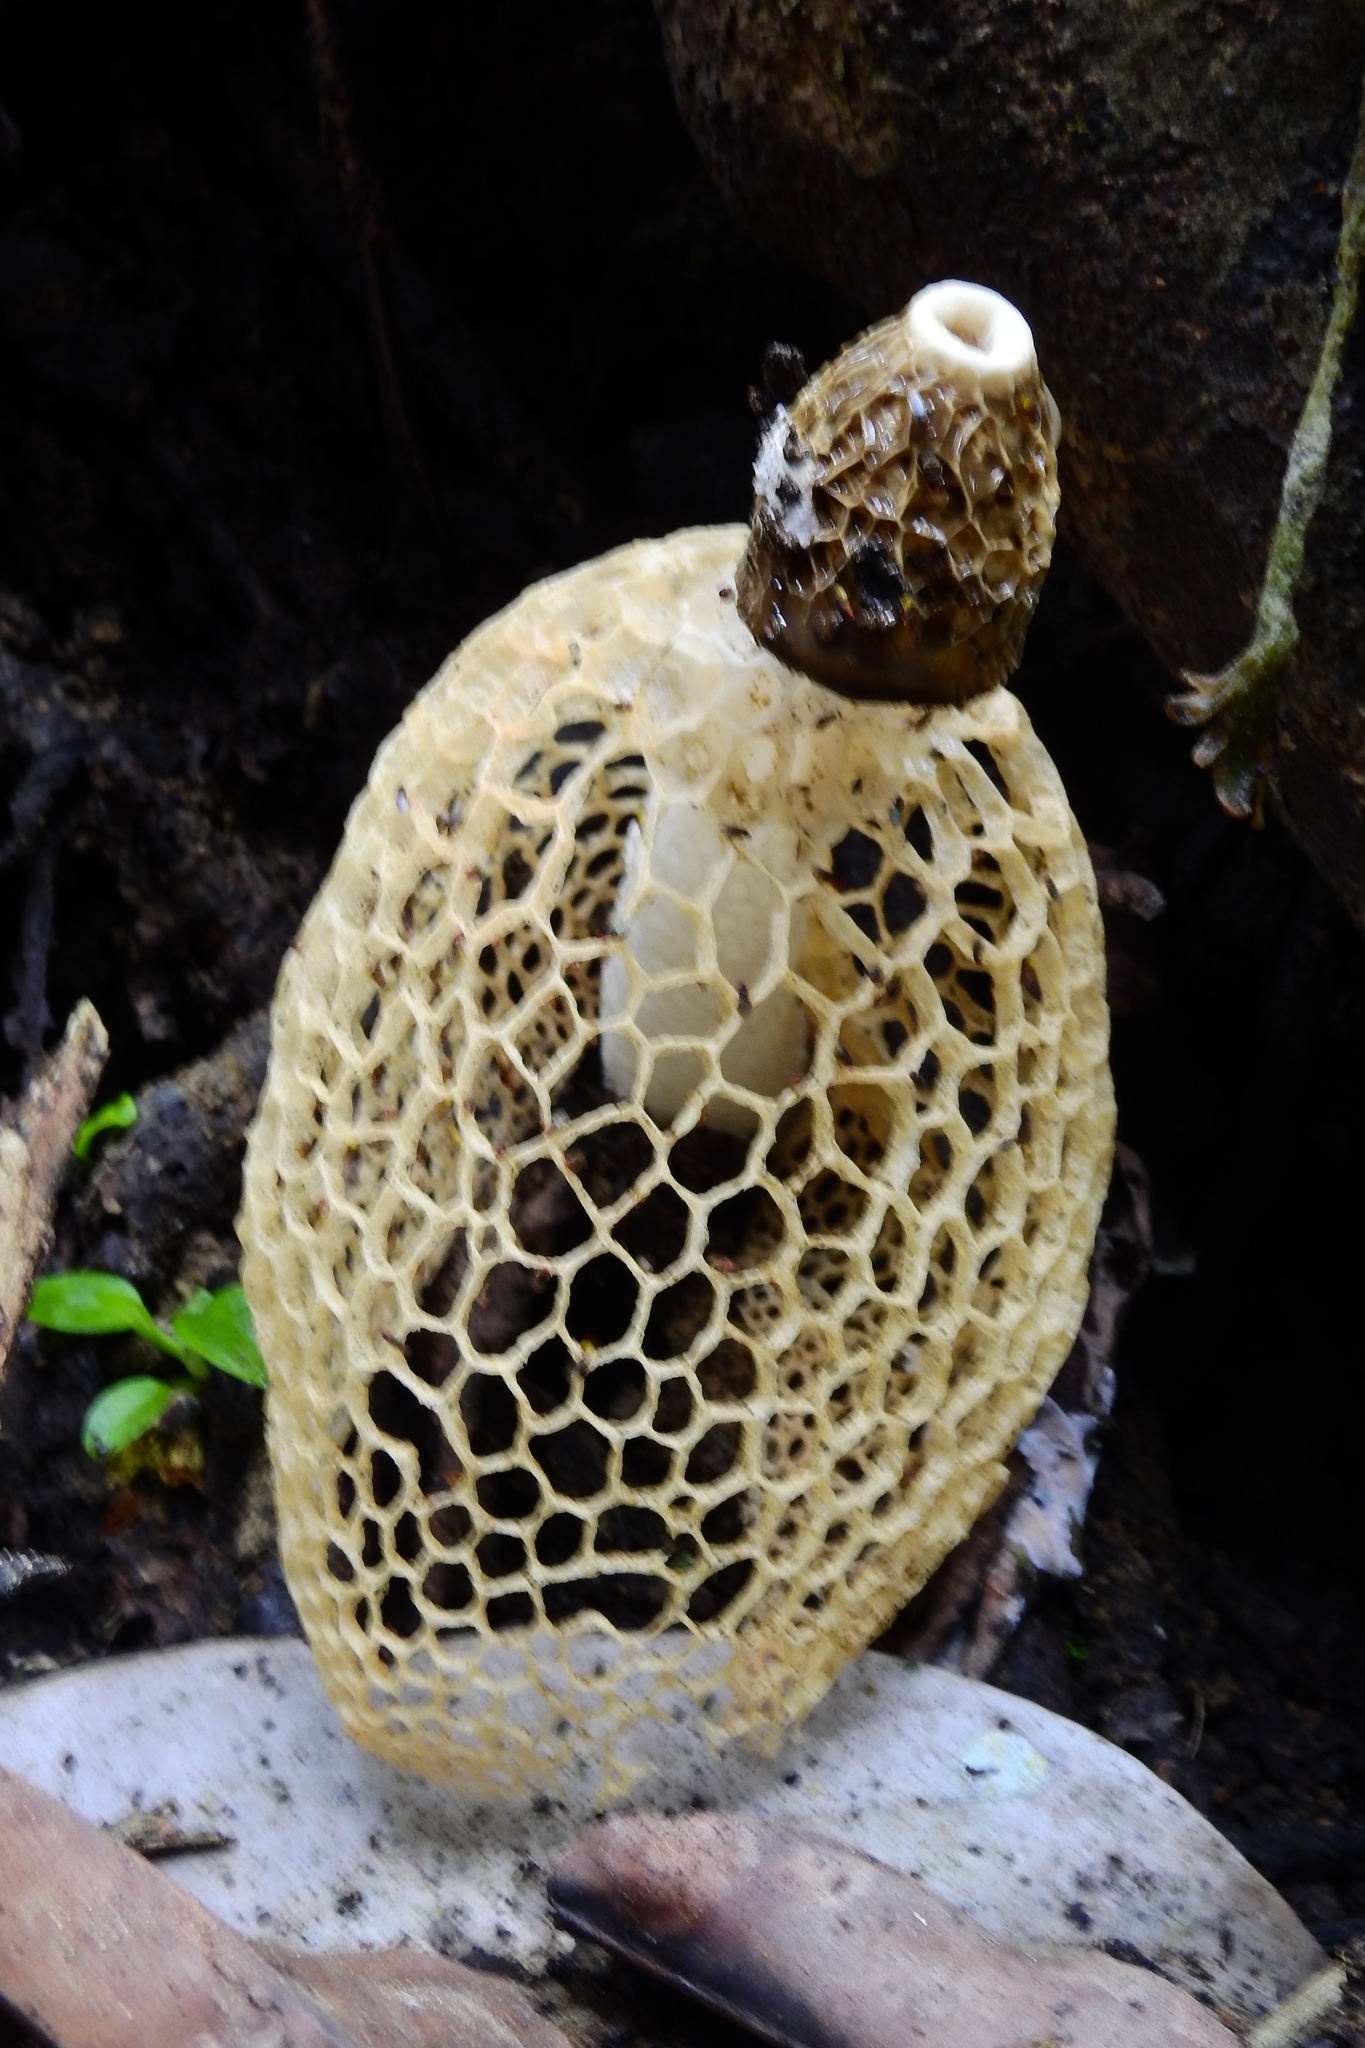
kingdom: Fungi
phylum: Basidiomycota
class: Agaricomycetes
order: Phallales
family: Phallaceae
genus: Phallus
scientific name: Phallus indusiatus
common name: Bridal veil stinkhorn
